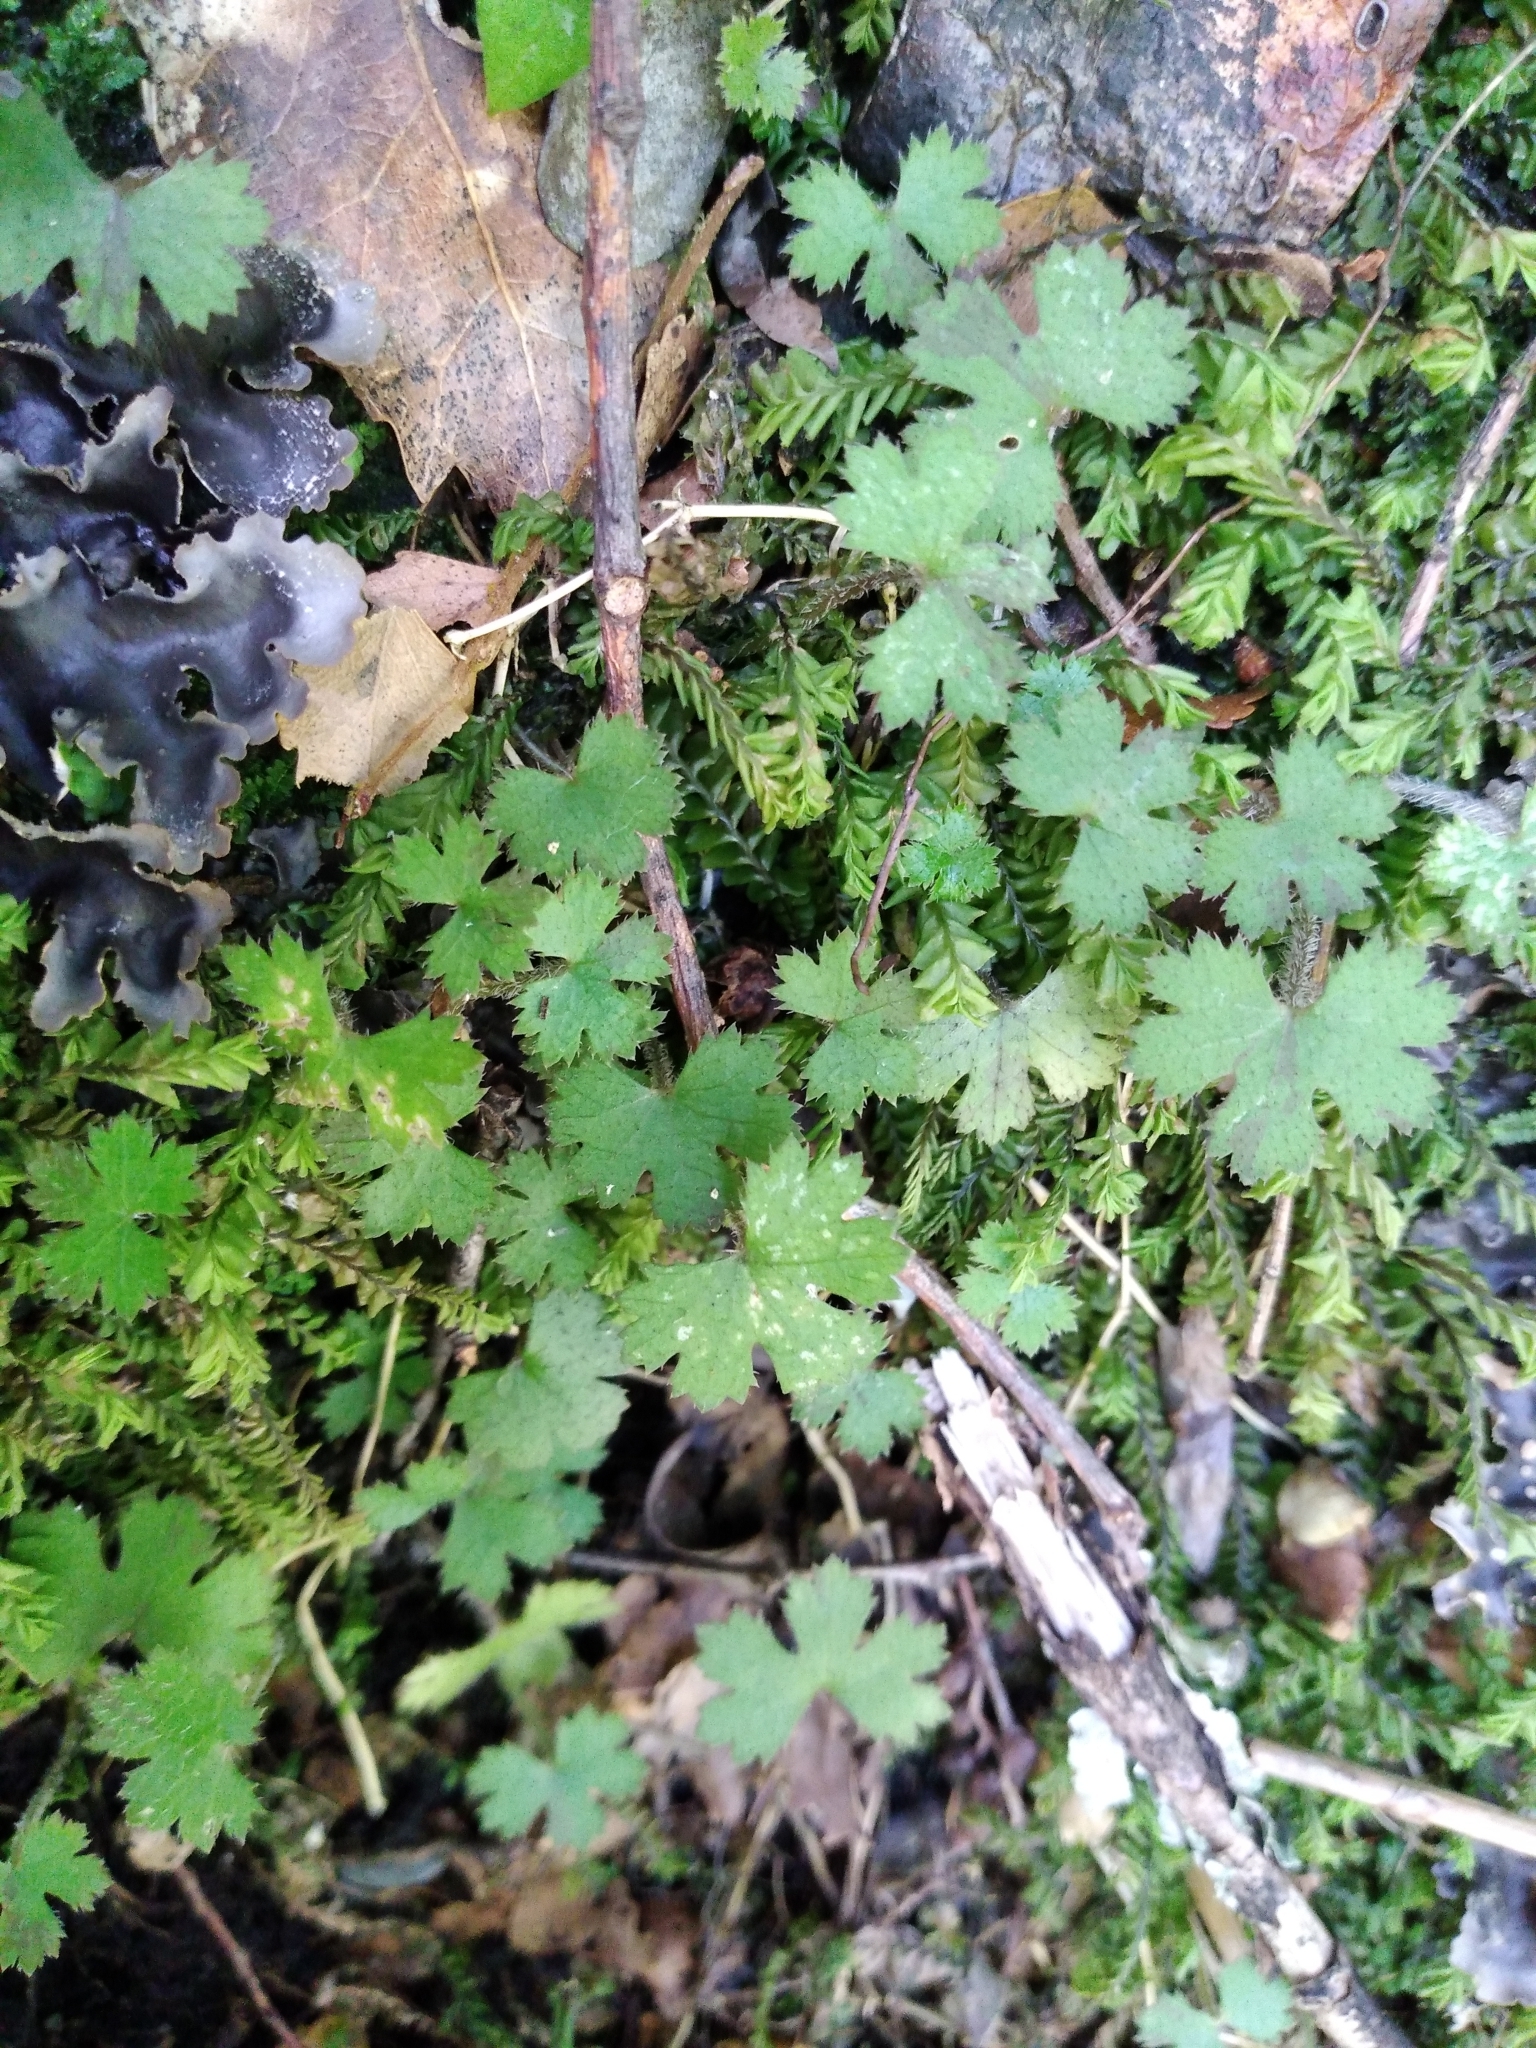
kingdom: Plantae
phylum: Tracheophyta
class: Magnoliopsida
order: Apiales
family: Araliaceae
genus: Hydrocotyle
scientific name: Hydrocotyle elongata
